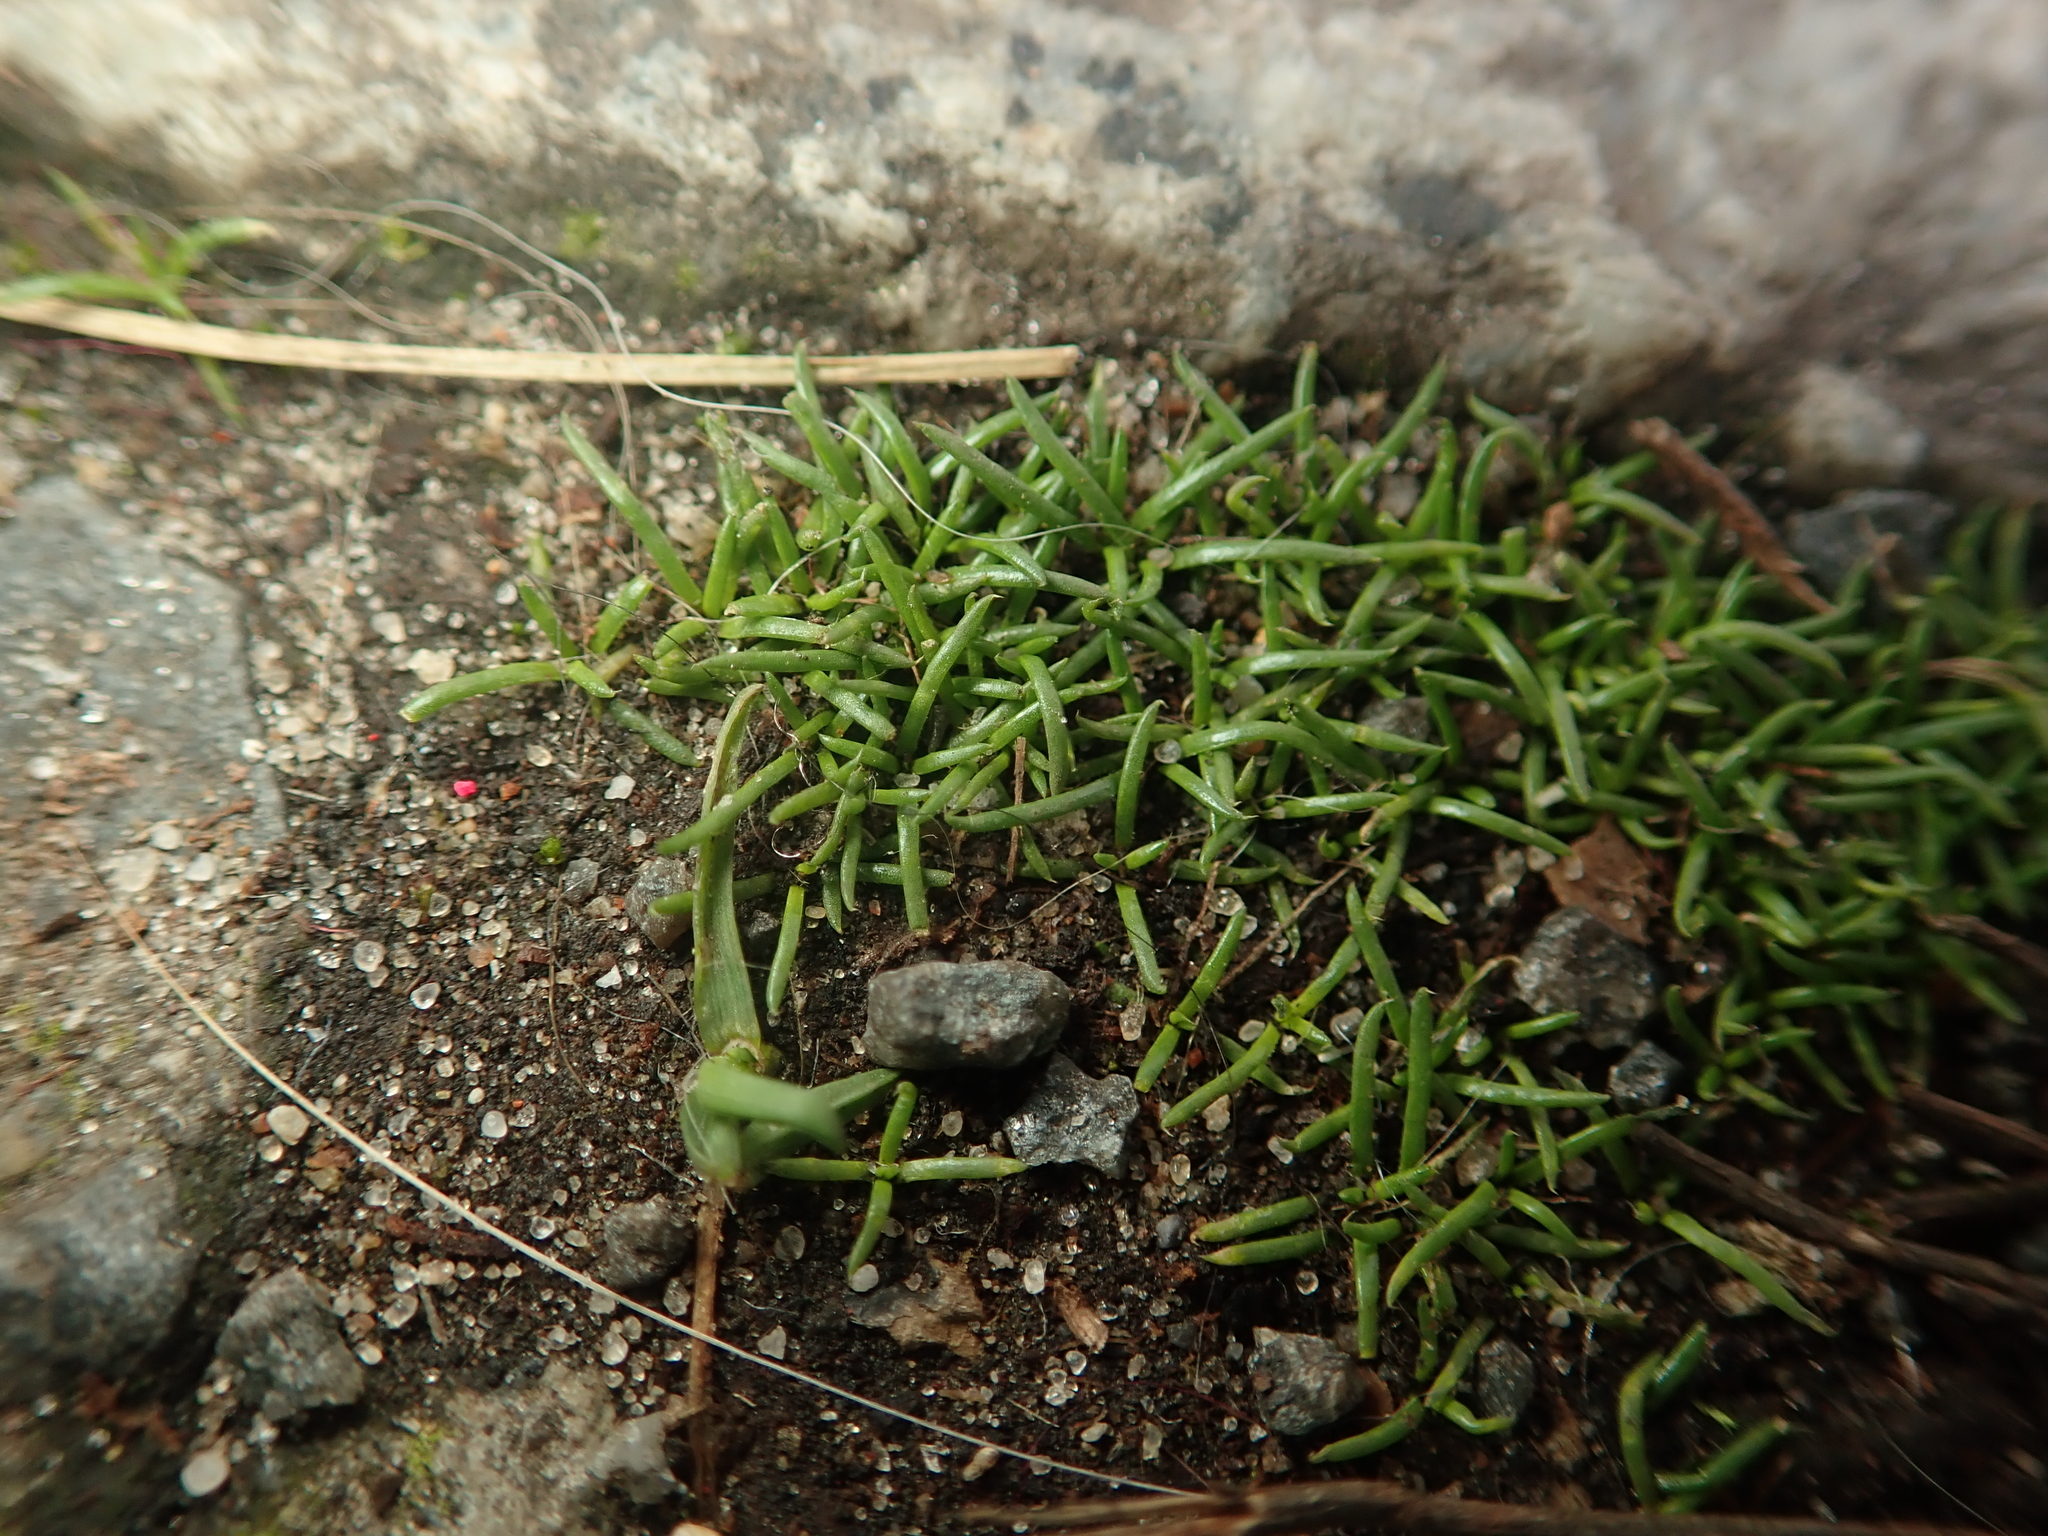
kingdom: Plantae
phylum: Tracheophyta
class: Magnoliopsida
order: Caryophyllales
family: Caryophyllaceae
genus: Sagina
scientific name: Sagina procumbens
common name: Procumbent pearlwort
